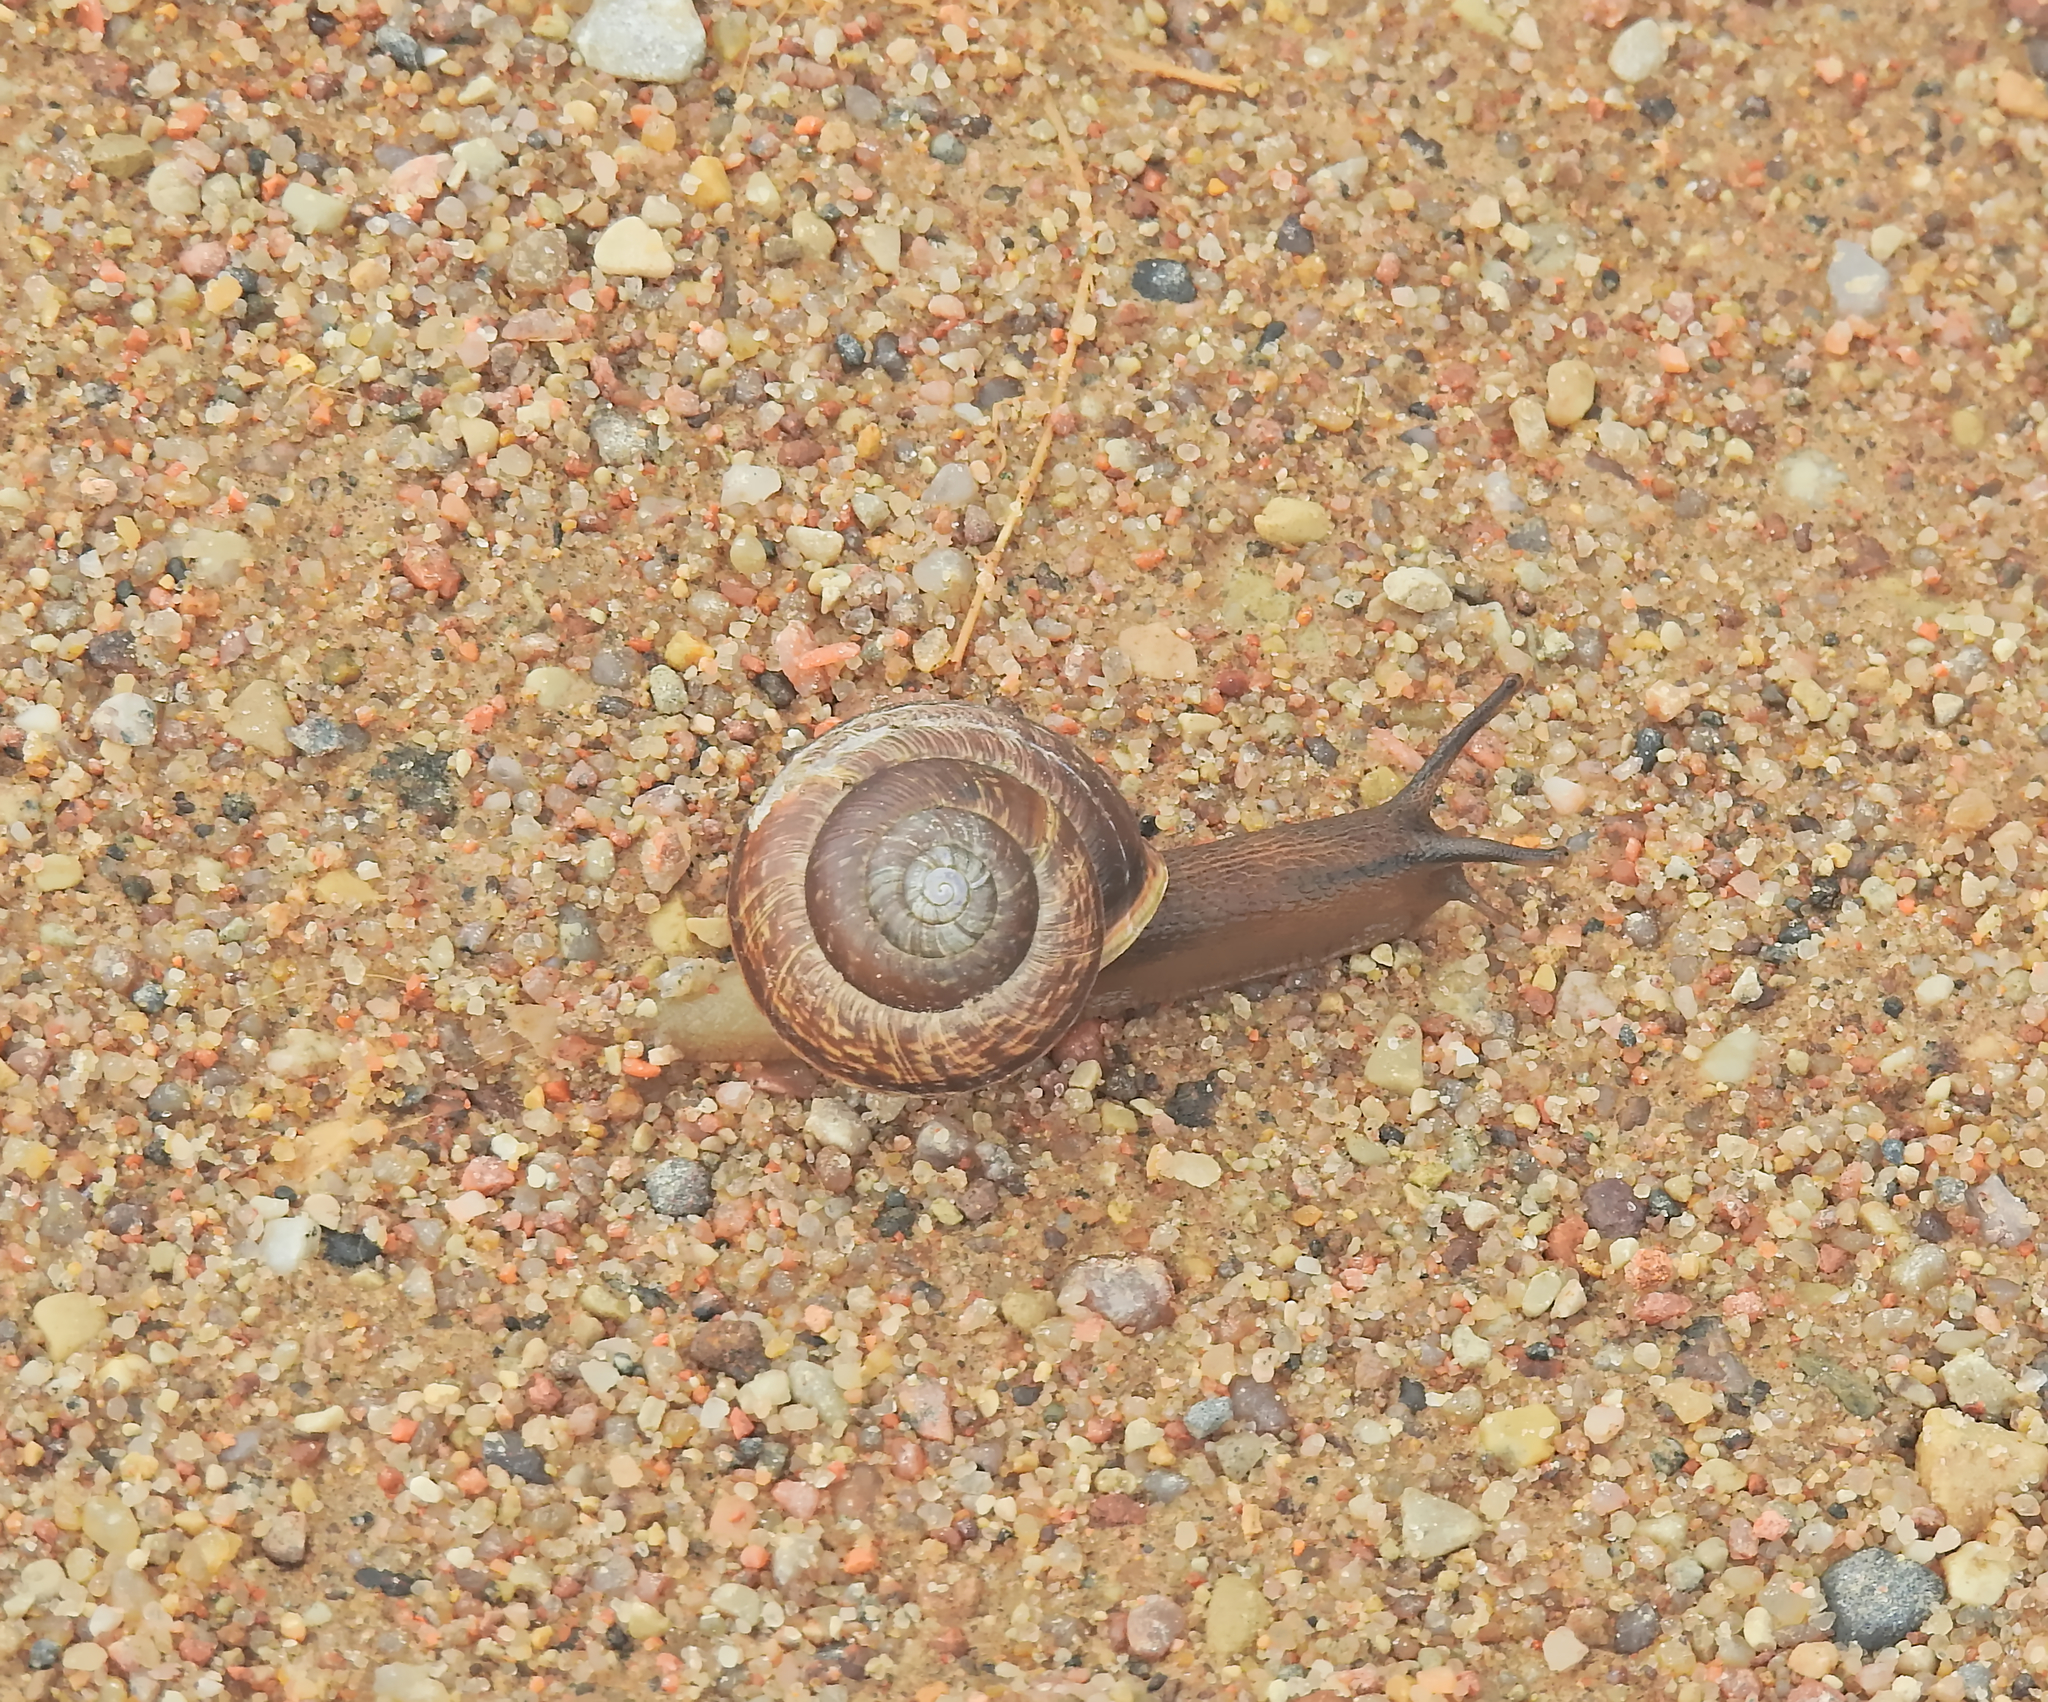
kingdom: Animalia
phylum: Mollusca
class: Gastropoda
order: Stylommatophora
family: Helicidae
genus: Arianta
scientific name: Arianta arbustorum
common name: Copse snail
